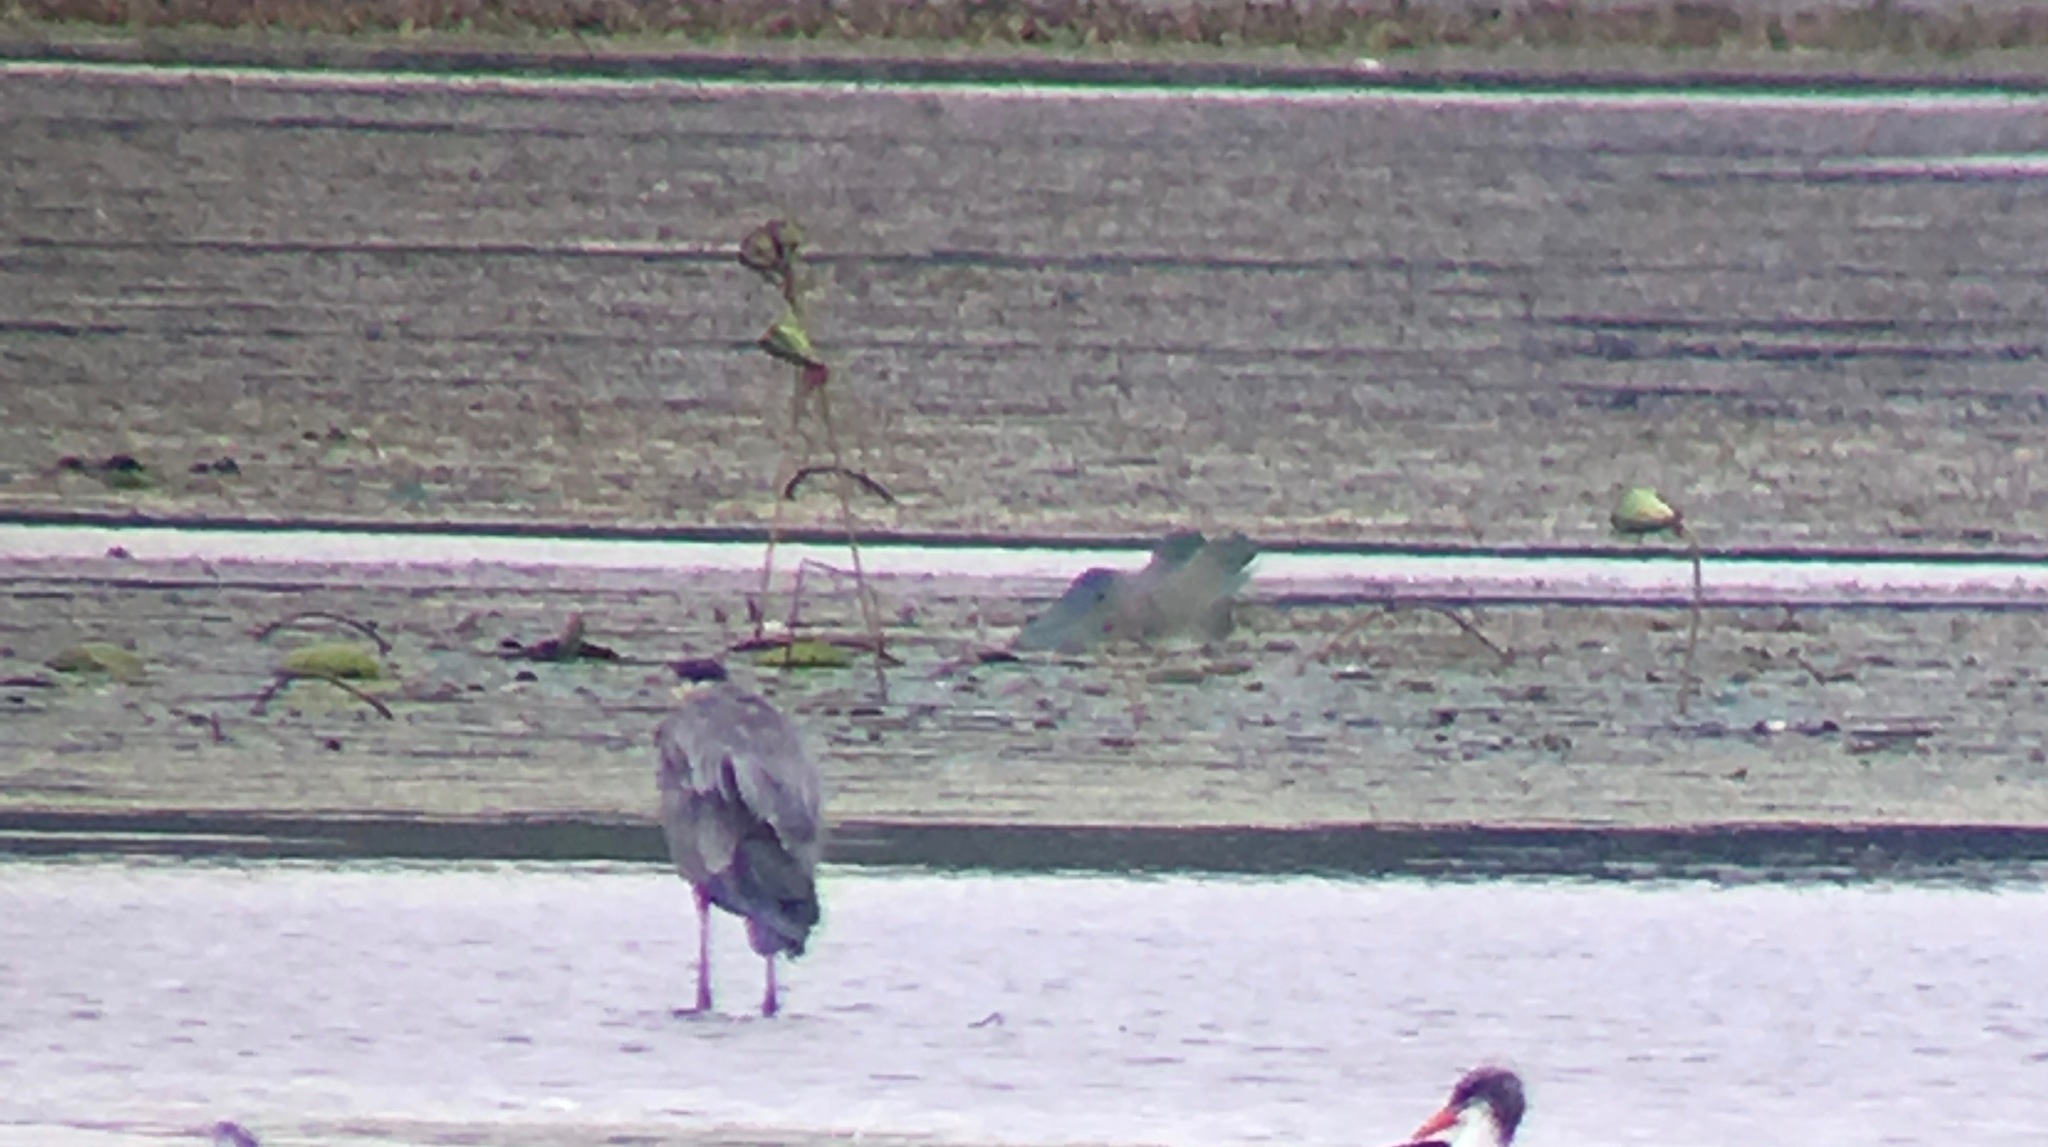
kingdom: Plantae
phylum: Tracheophyta
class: Magnoliopsida
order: Proteales
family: Nelumbonaceae
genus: Nelumbo
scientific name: Nelumbo lutea
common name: American lotus
